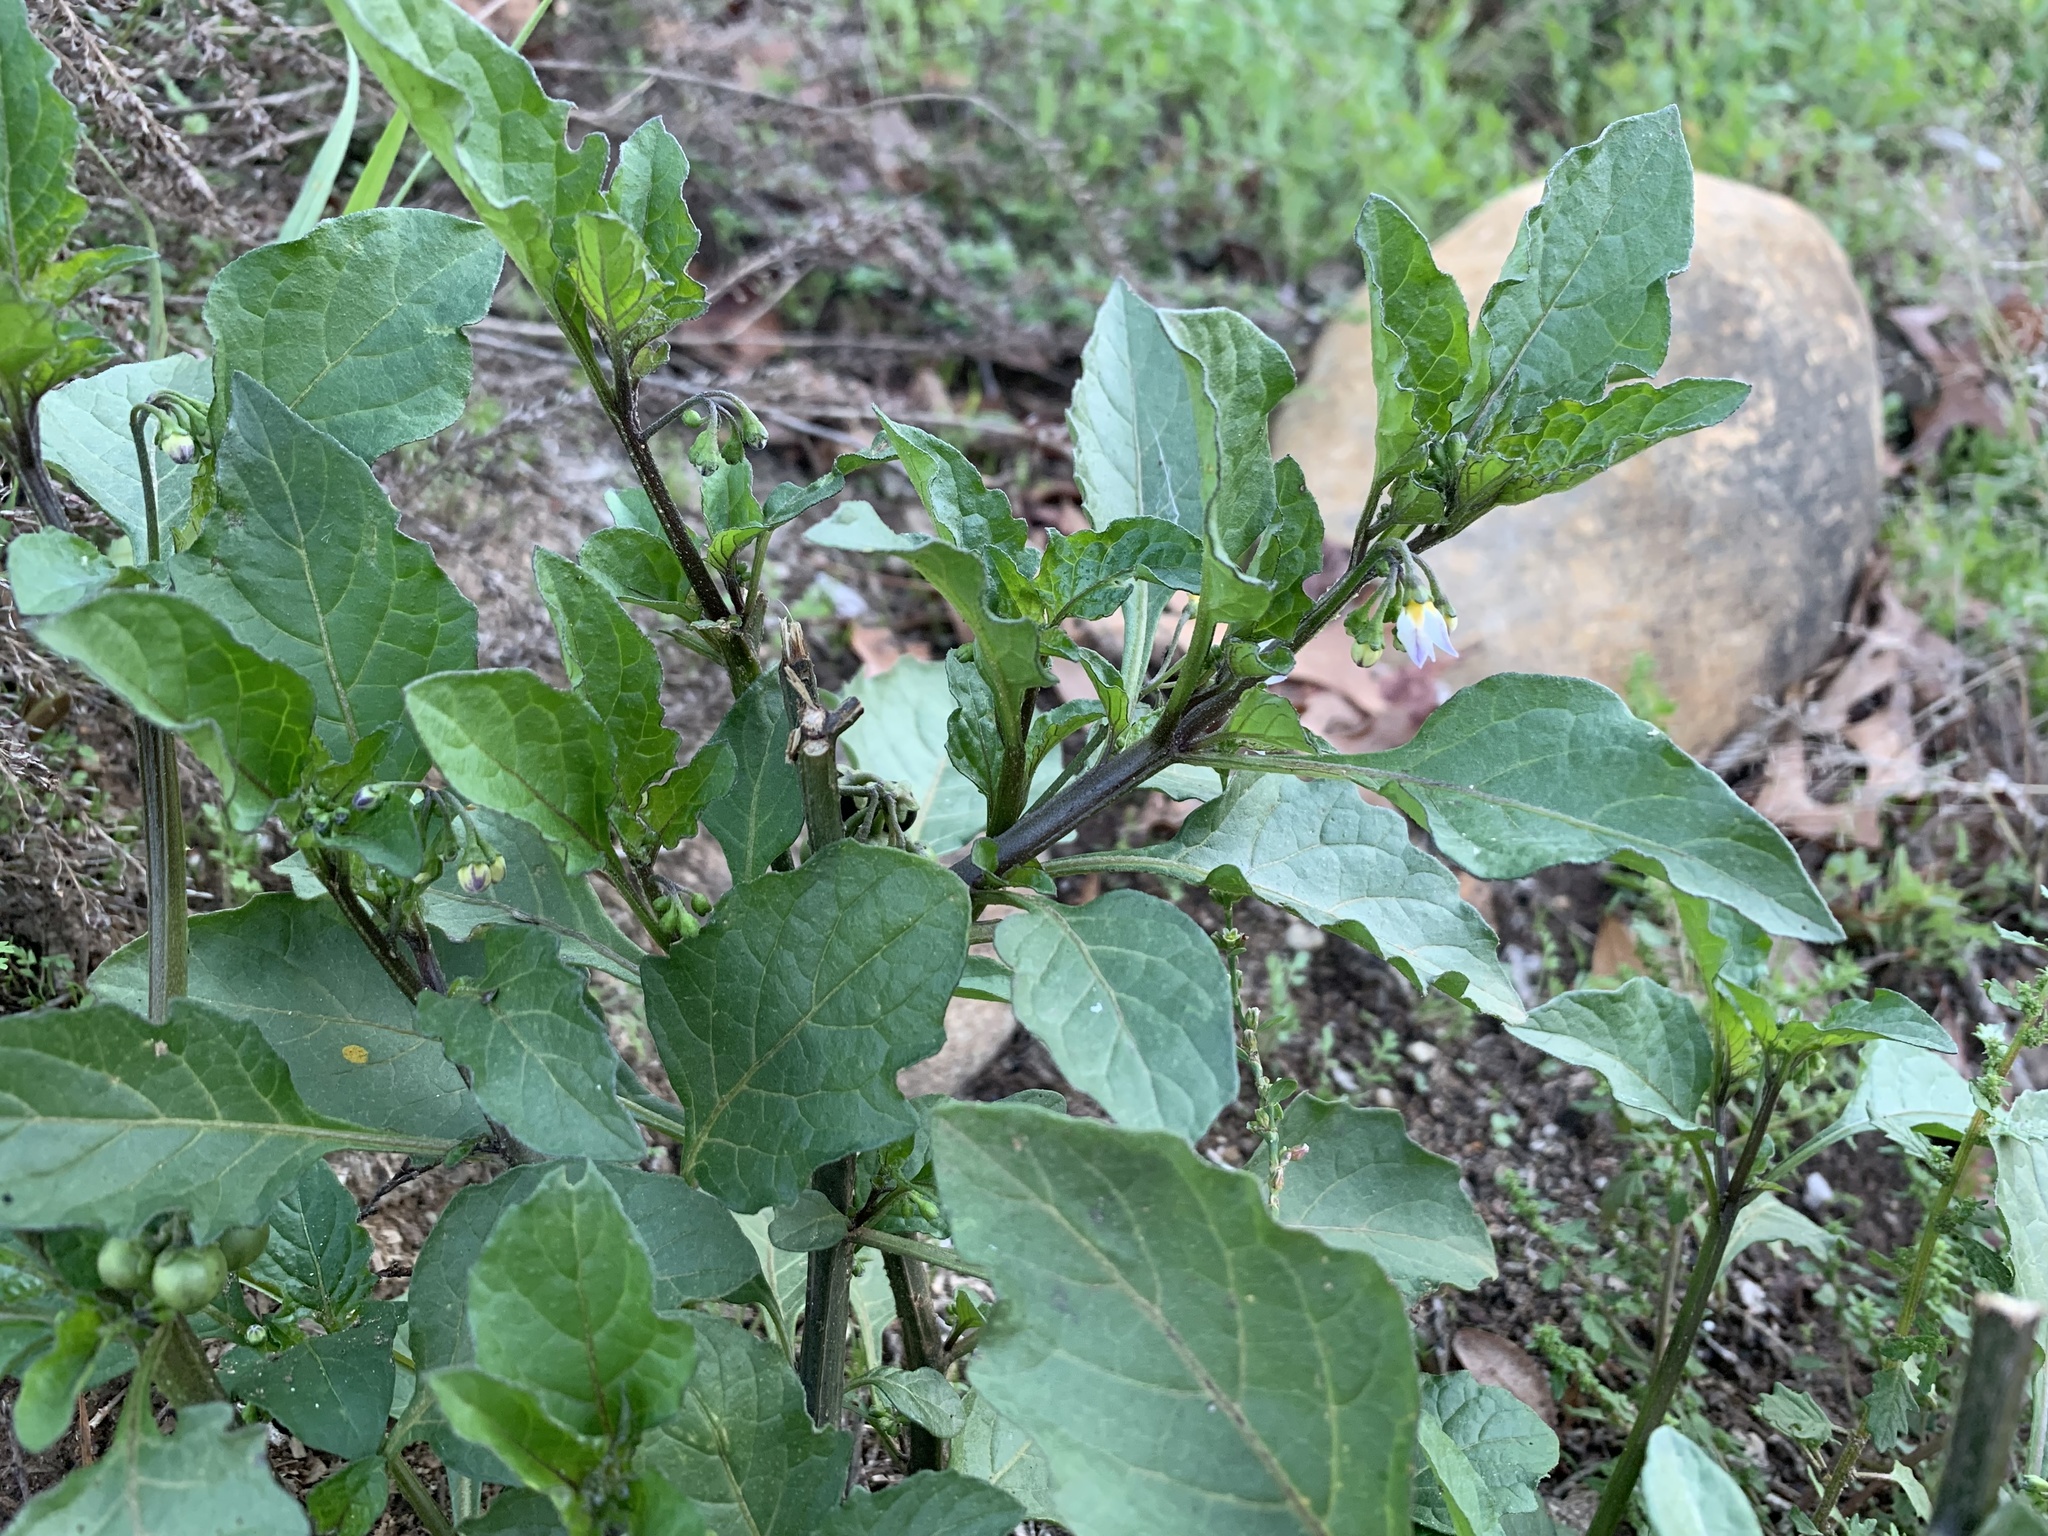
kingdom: Plantae
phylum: Tracheophyta
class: Magnoliopsida
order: Solanales
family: Solanaceae
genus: Solanum
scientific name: Solanum nigrum
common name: Black nightshade
